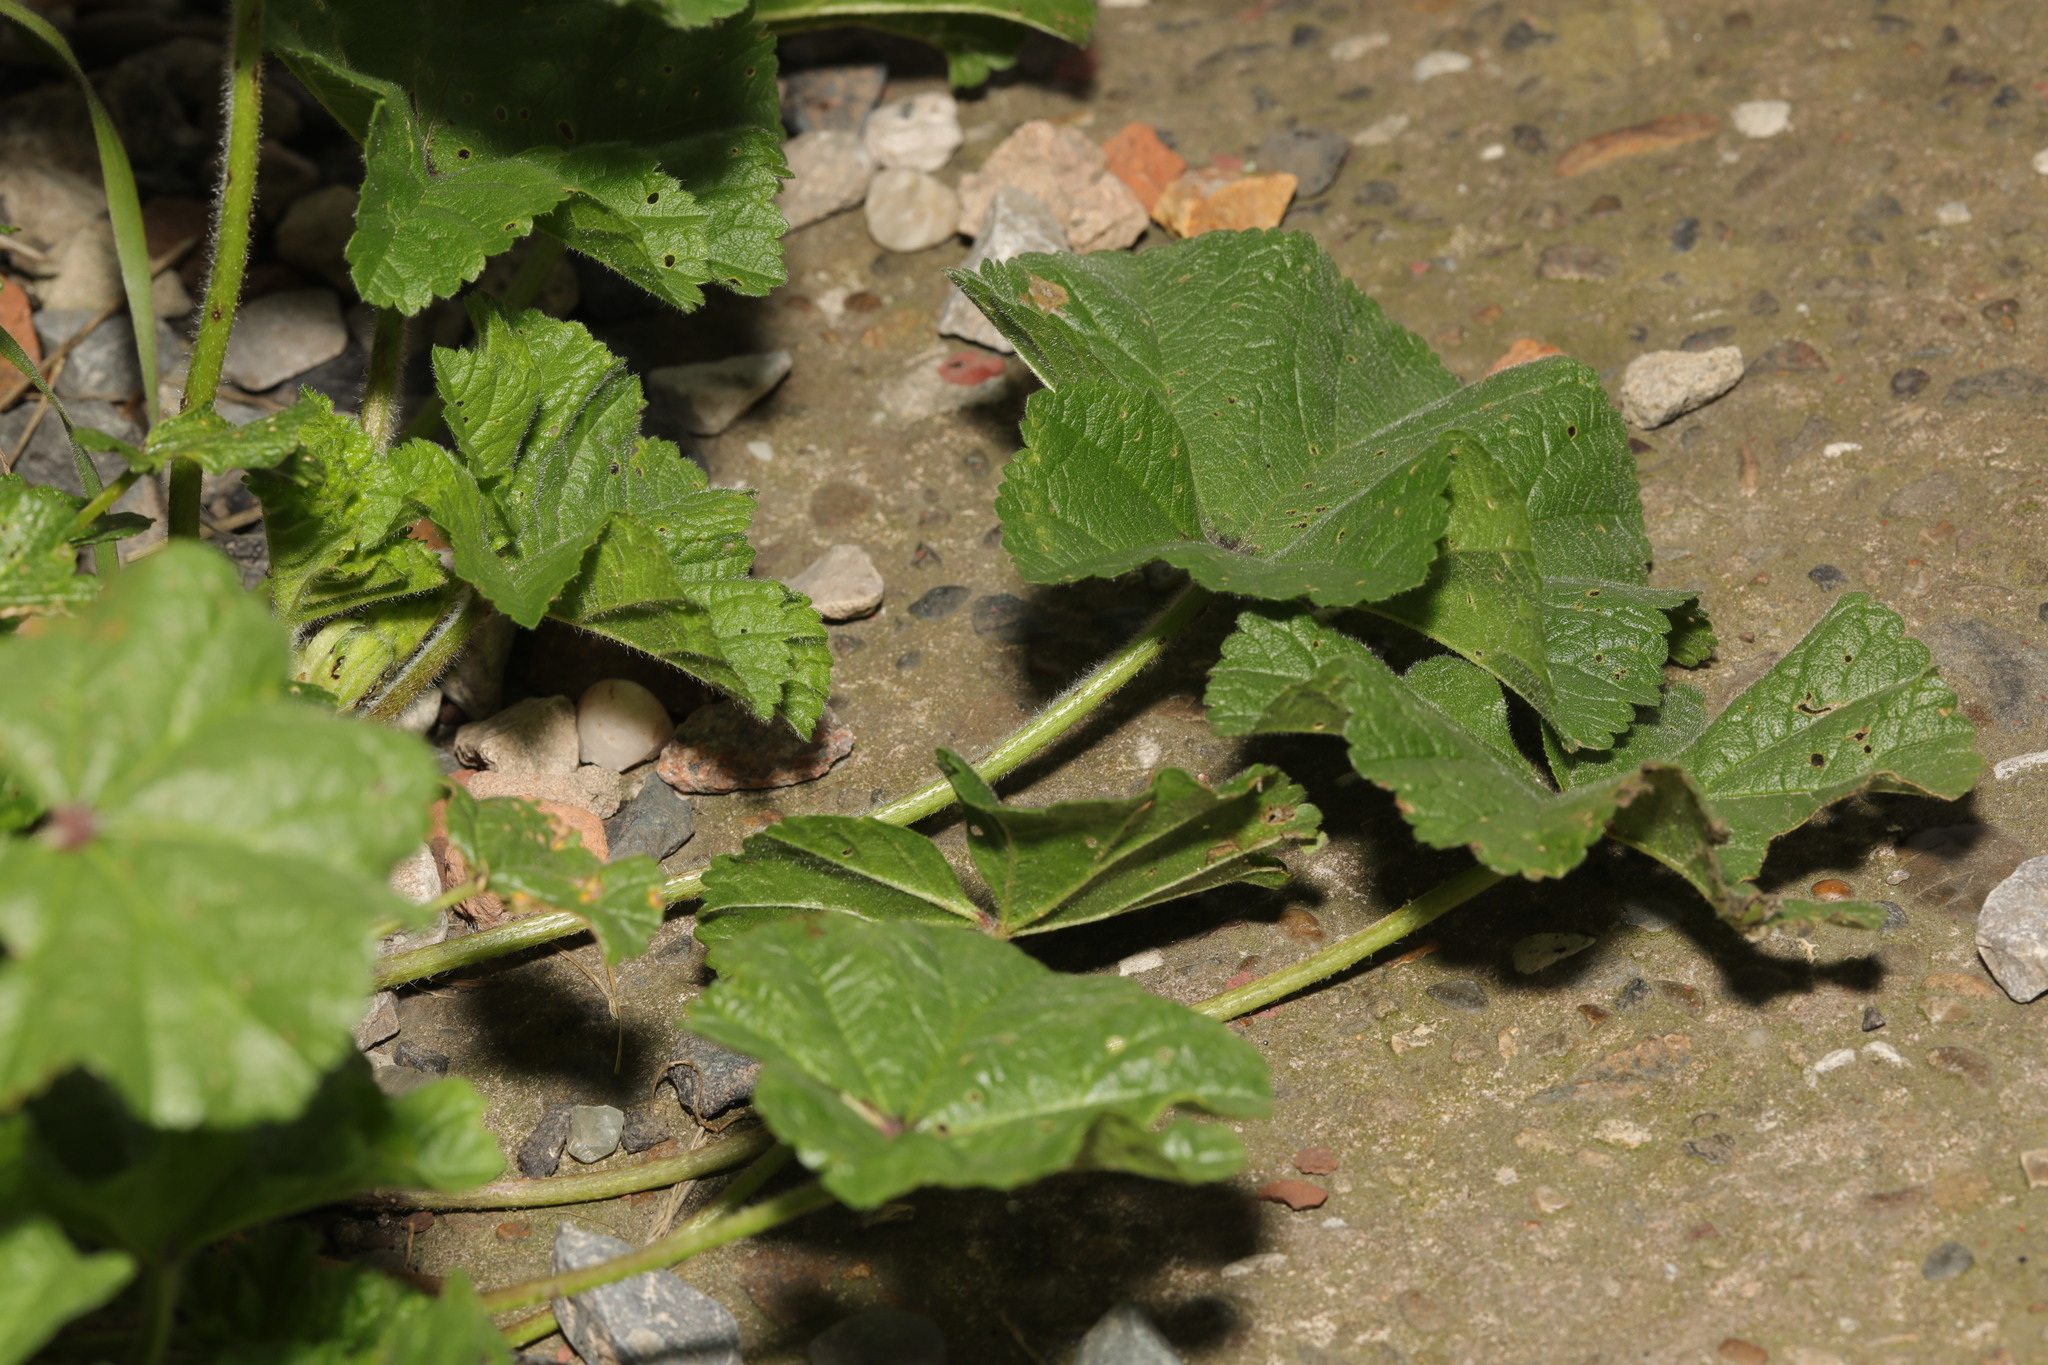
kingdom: Plantae
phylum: Tracheophyta
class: Magnoliopsida
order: Malvales
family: Malvaceae
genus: Malva
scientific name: Malva sylvestris
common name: Common mallow
